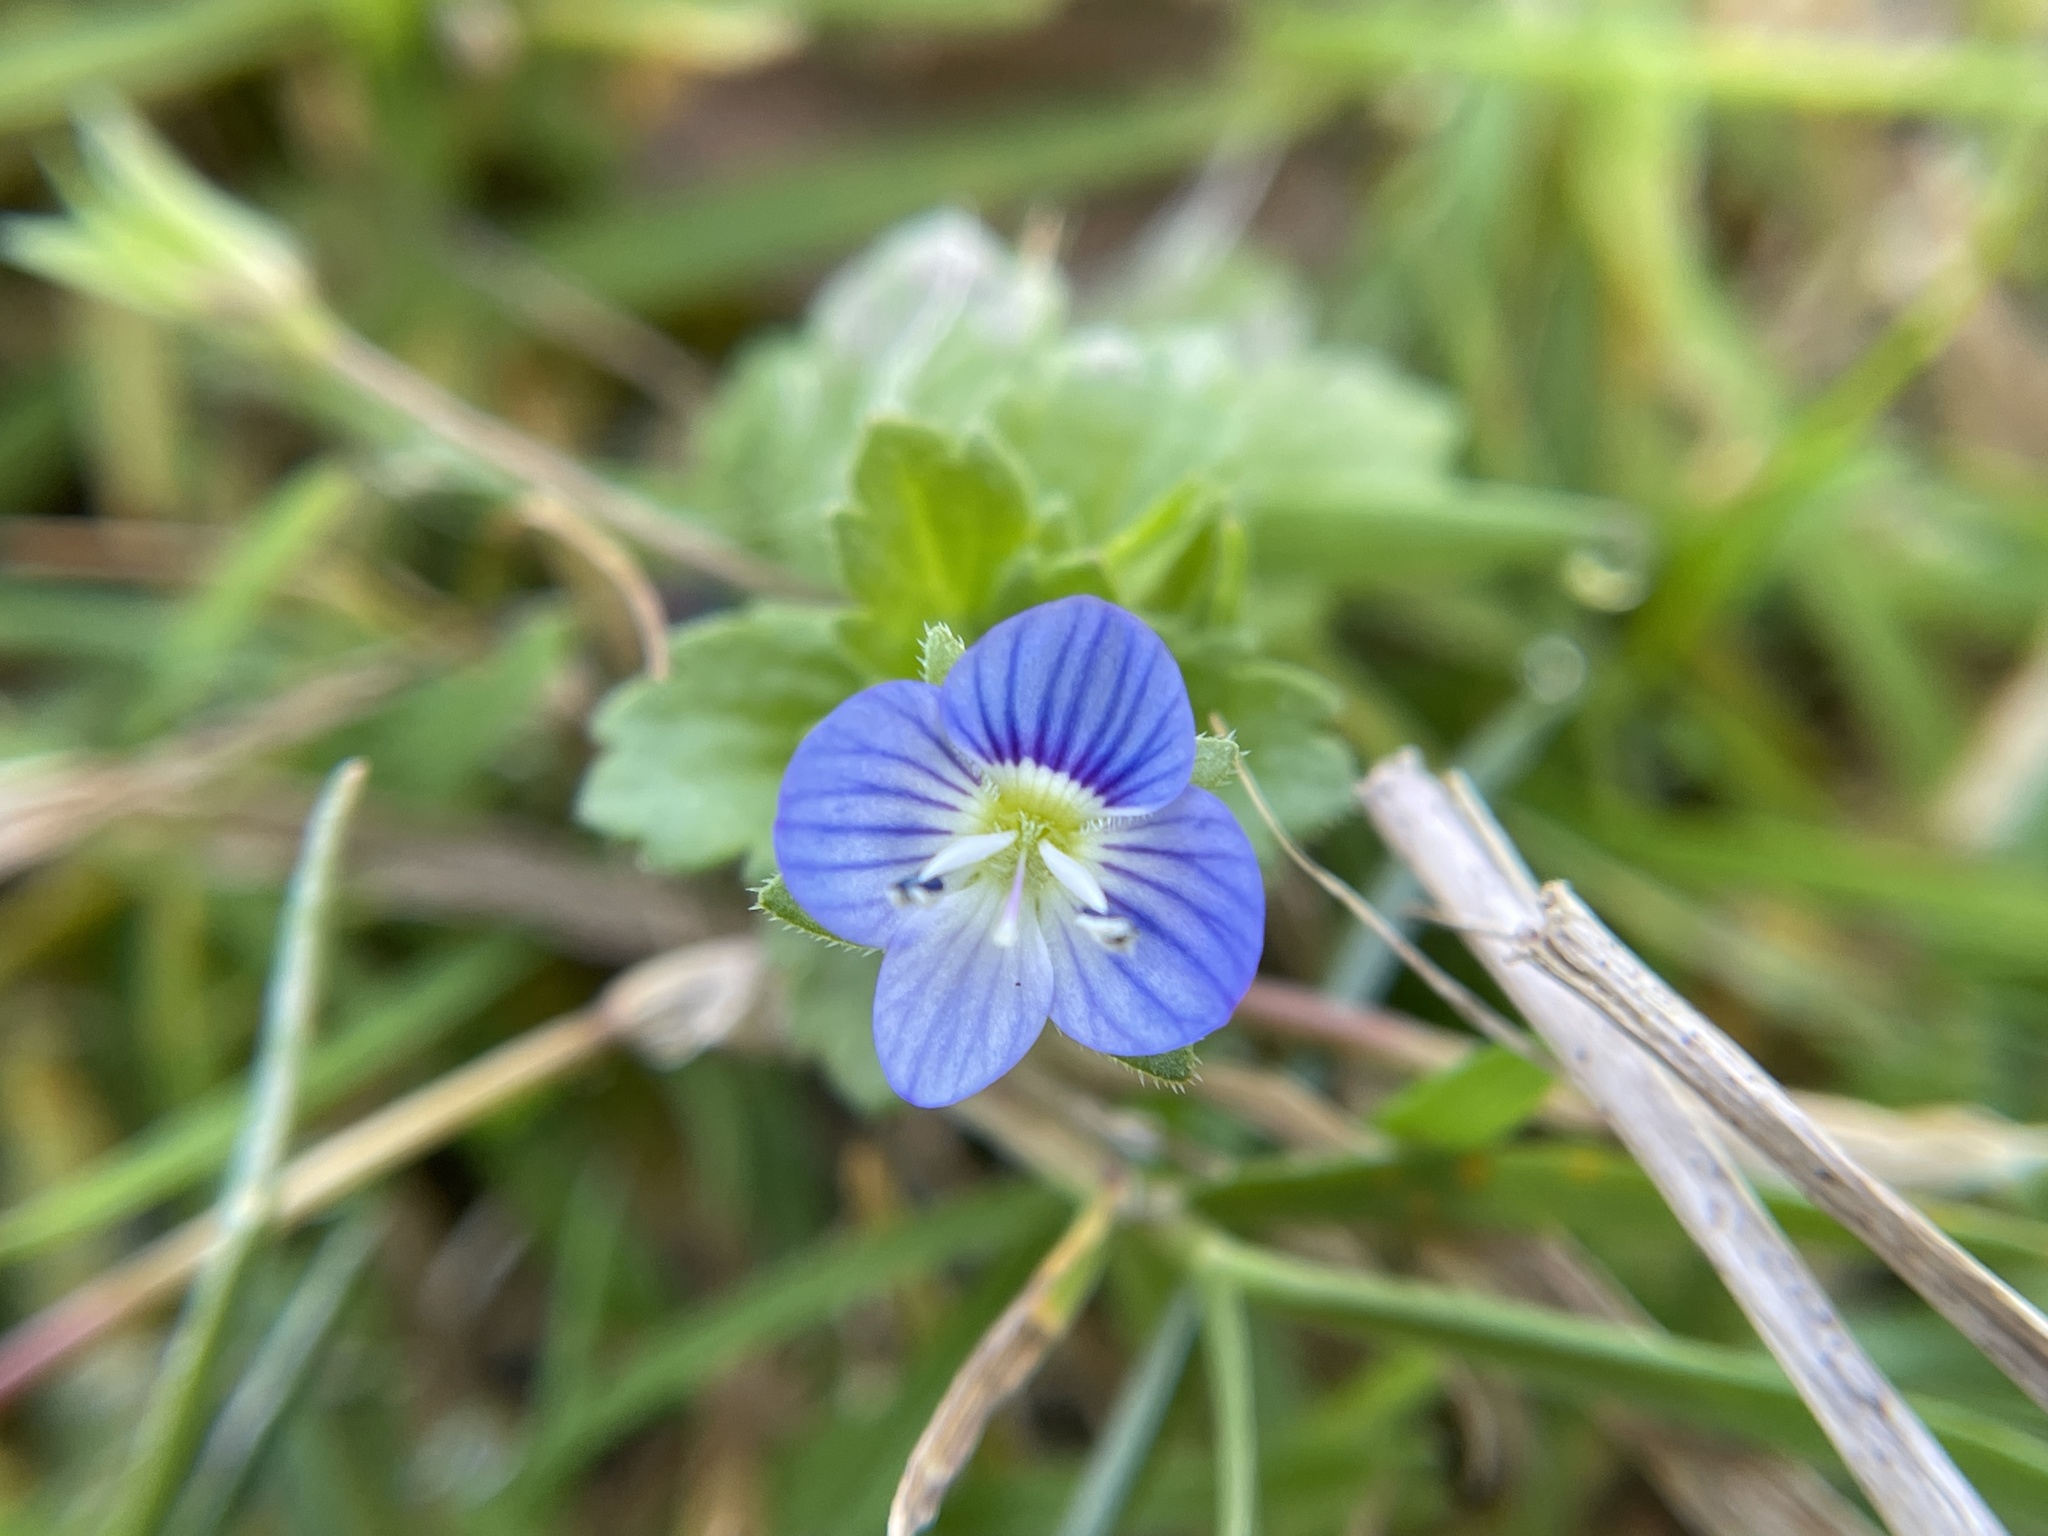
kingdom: Plantae
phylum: Tracheophyta
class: Magnoliopsida
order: Lamiales
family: Plantaginaceae
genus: Veronica
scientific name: Veronica persica
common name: Common field-speedwell
